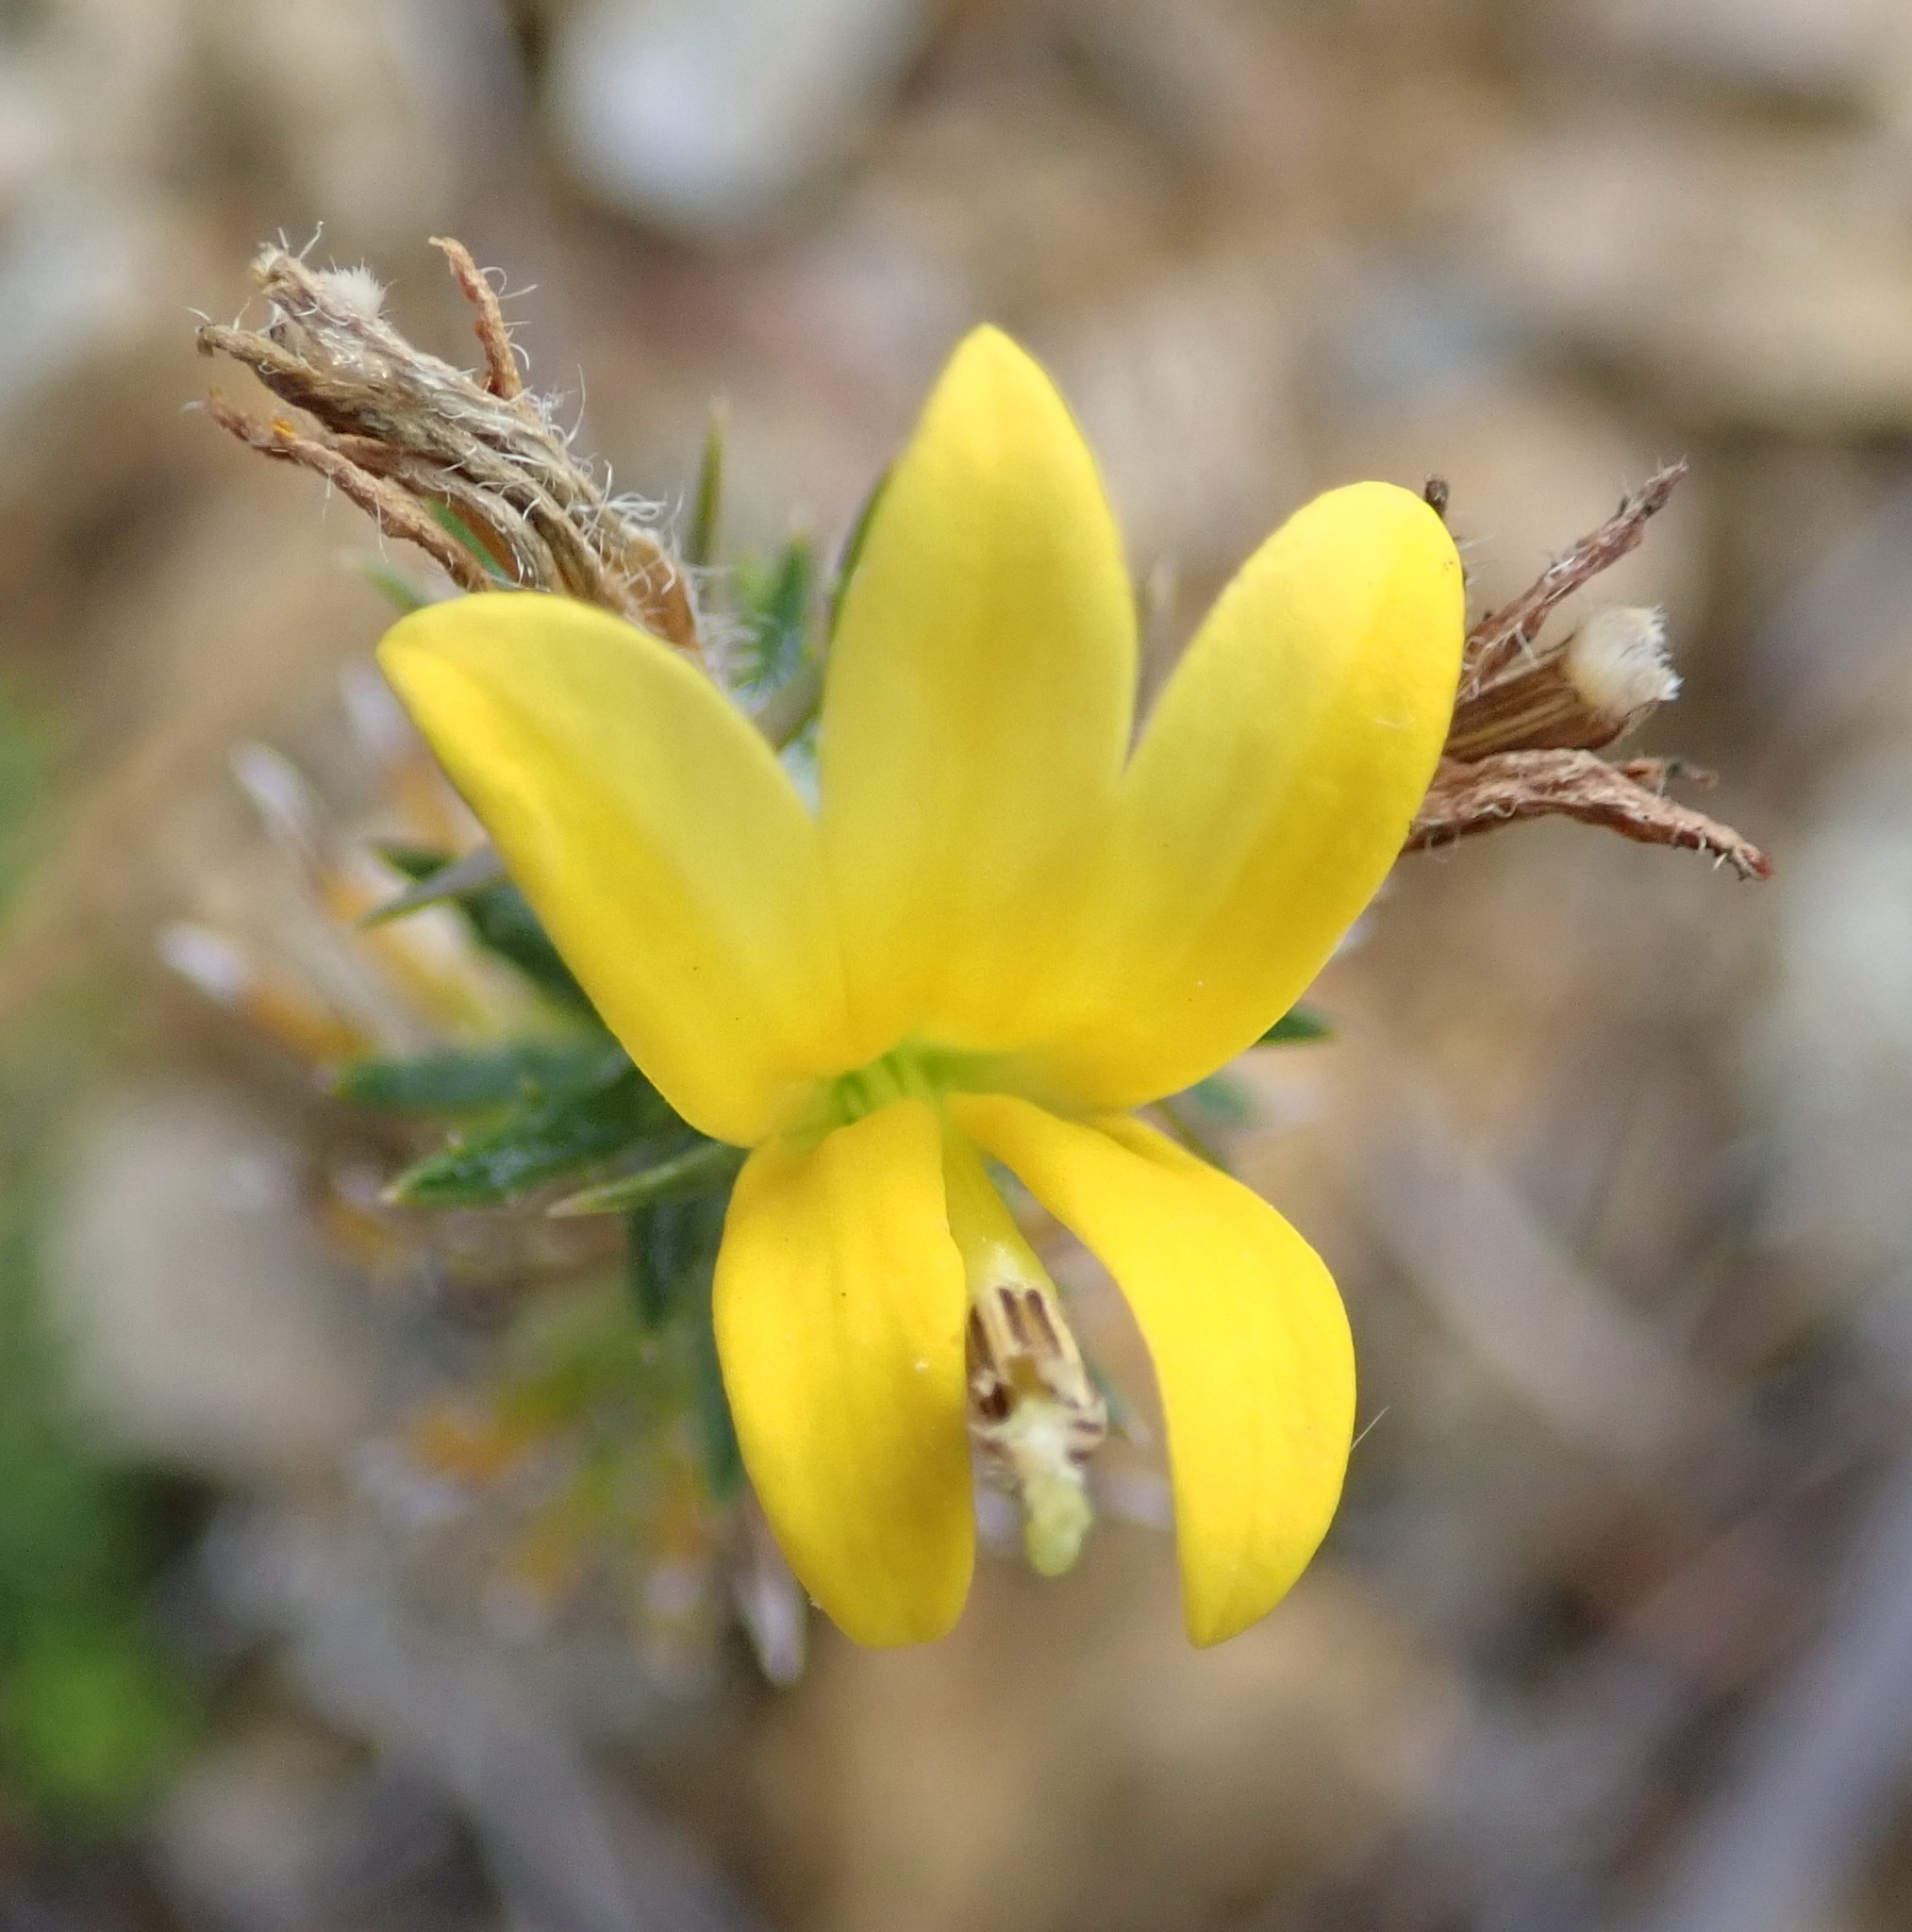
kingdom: Plantae
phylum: Tracheophyta
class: Magnoliopsida
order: Asterales
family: Campanulaceae
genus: Monopsis
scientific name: Monopsis variifolia
